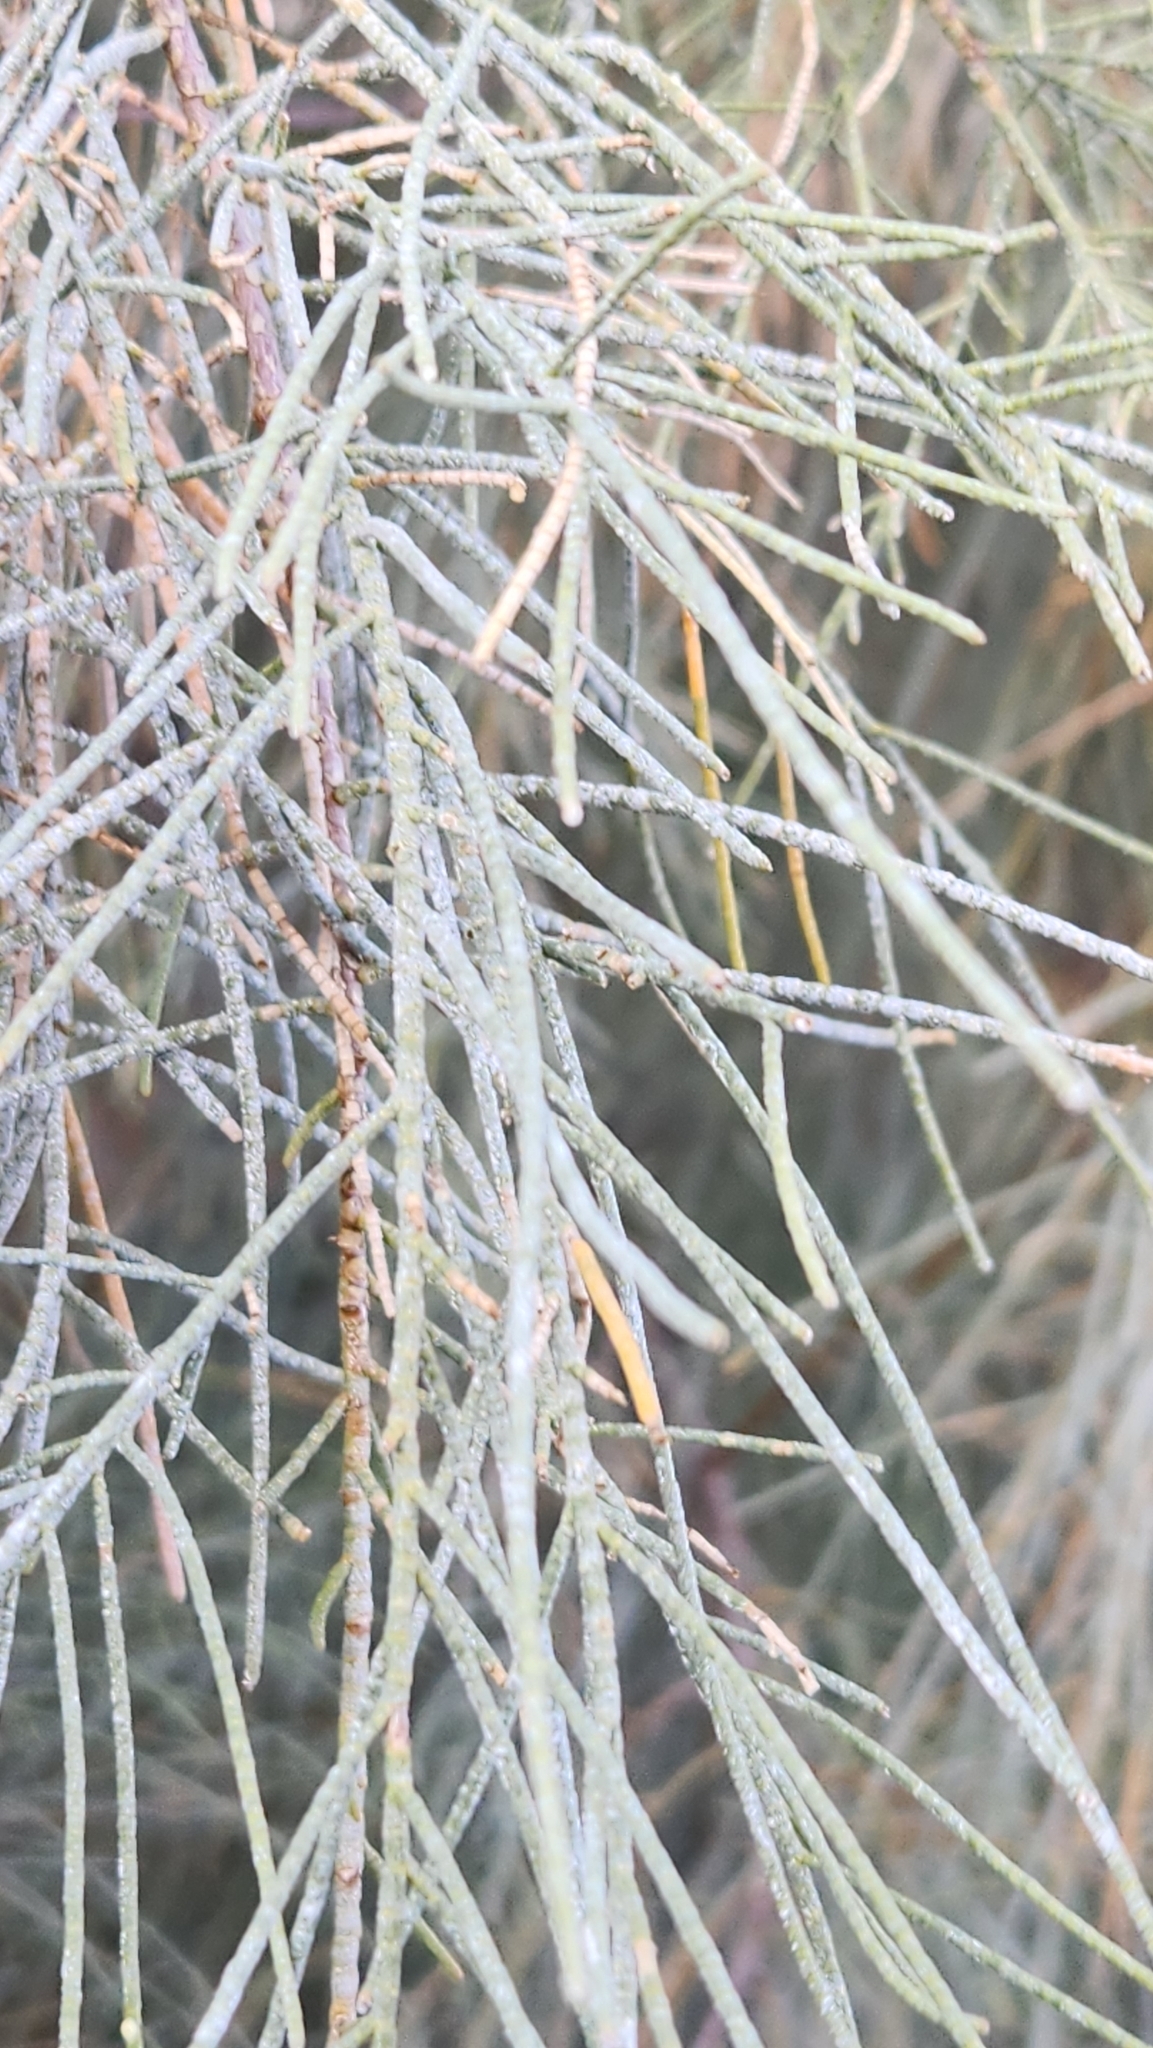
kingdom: Plantae
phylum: Tracheophyta
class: Magnoliopsida
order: Caryophyllales
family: Tamaricaceae
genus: Tamarix
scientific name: Tamarix aphylla
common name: Athel tamarisk
